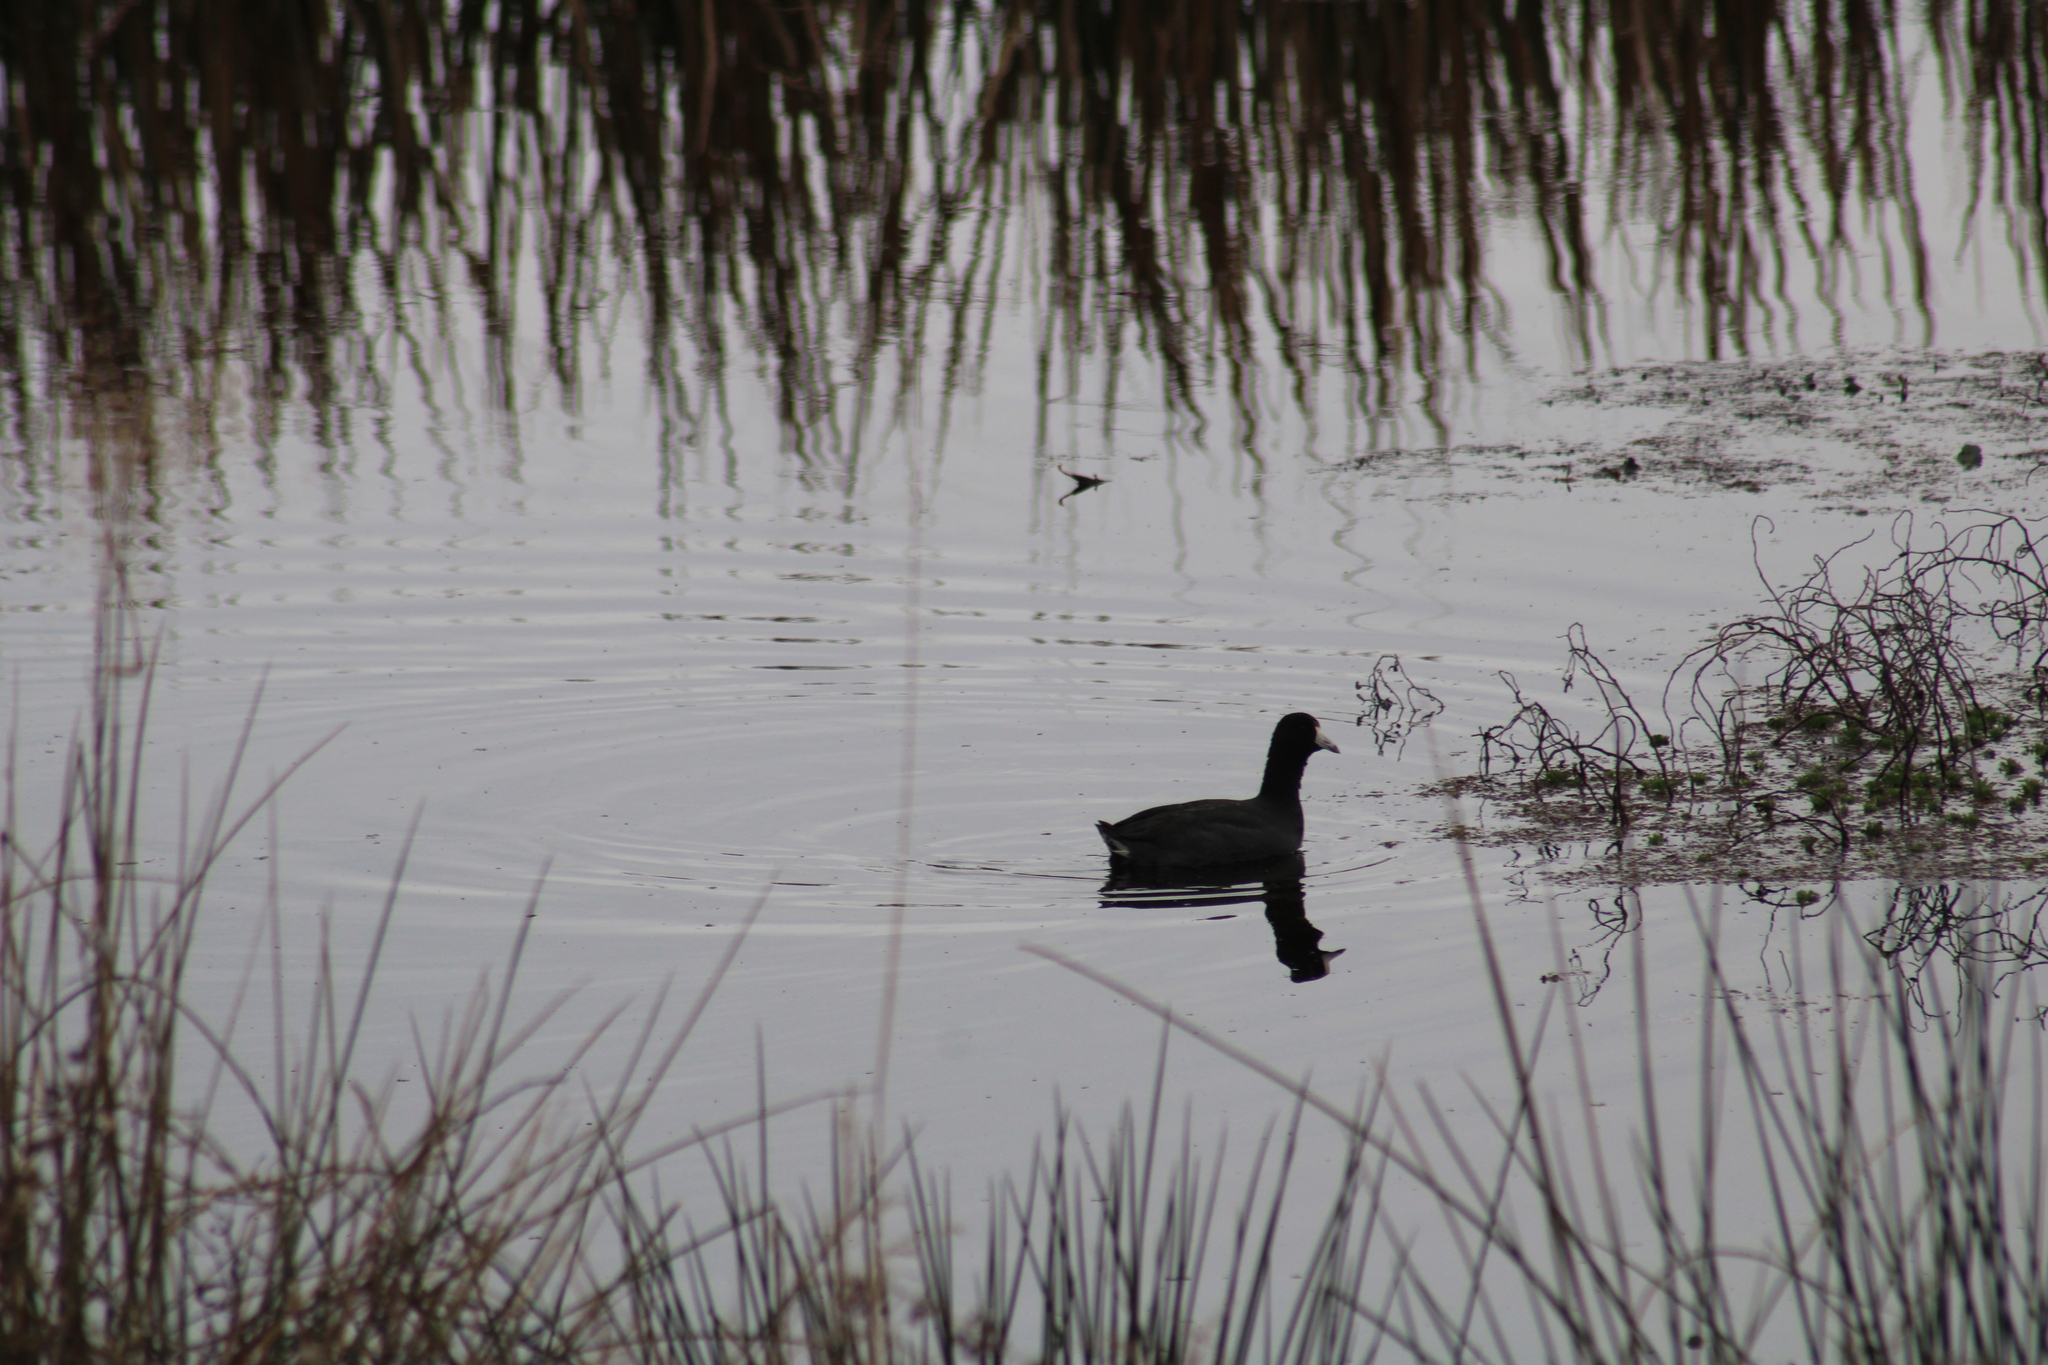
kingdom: Animalia
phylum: Chordata
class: Aves
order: Gruiformes
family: Rallidae
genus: Fulica
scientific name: Fulica americana
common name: American coot
